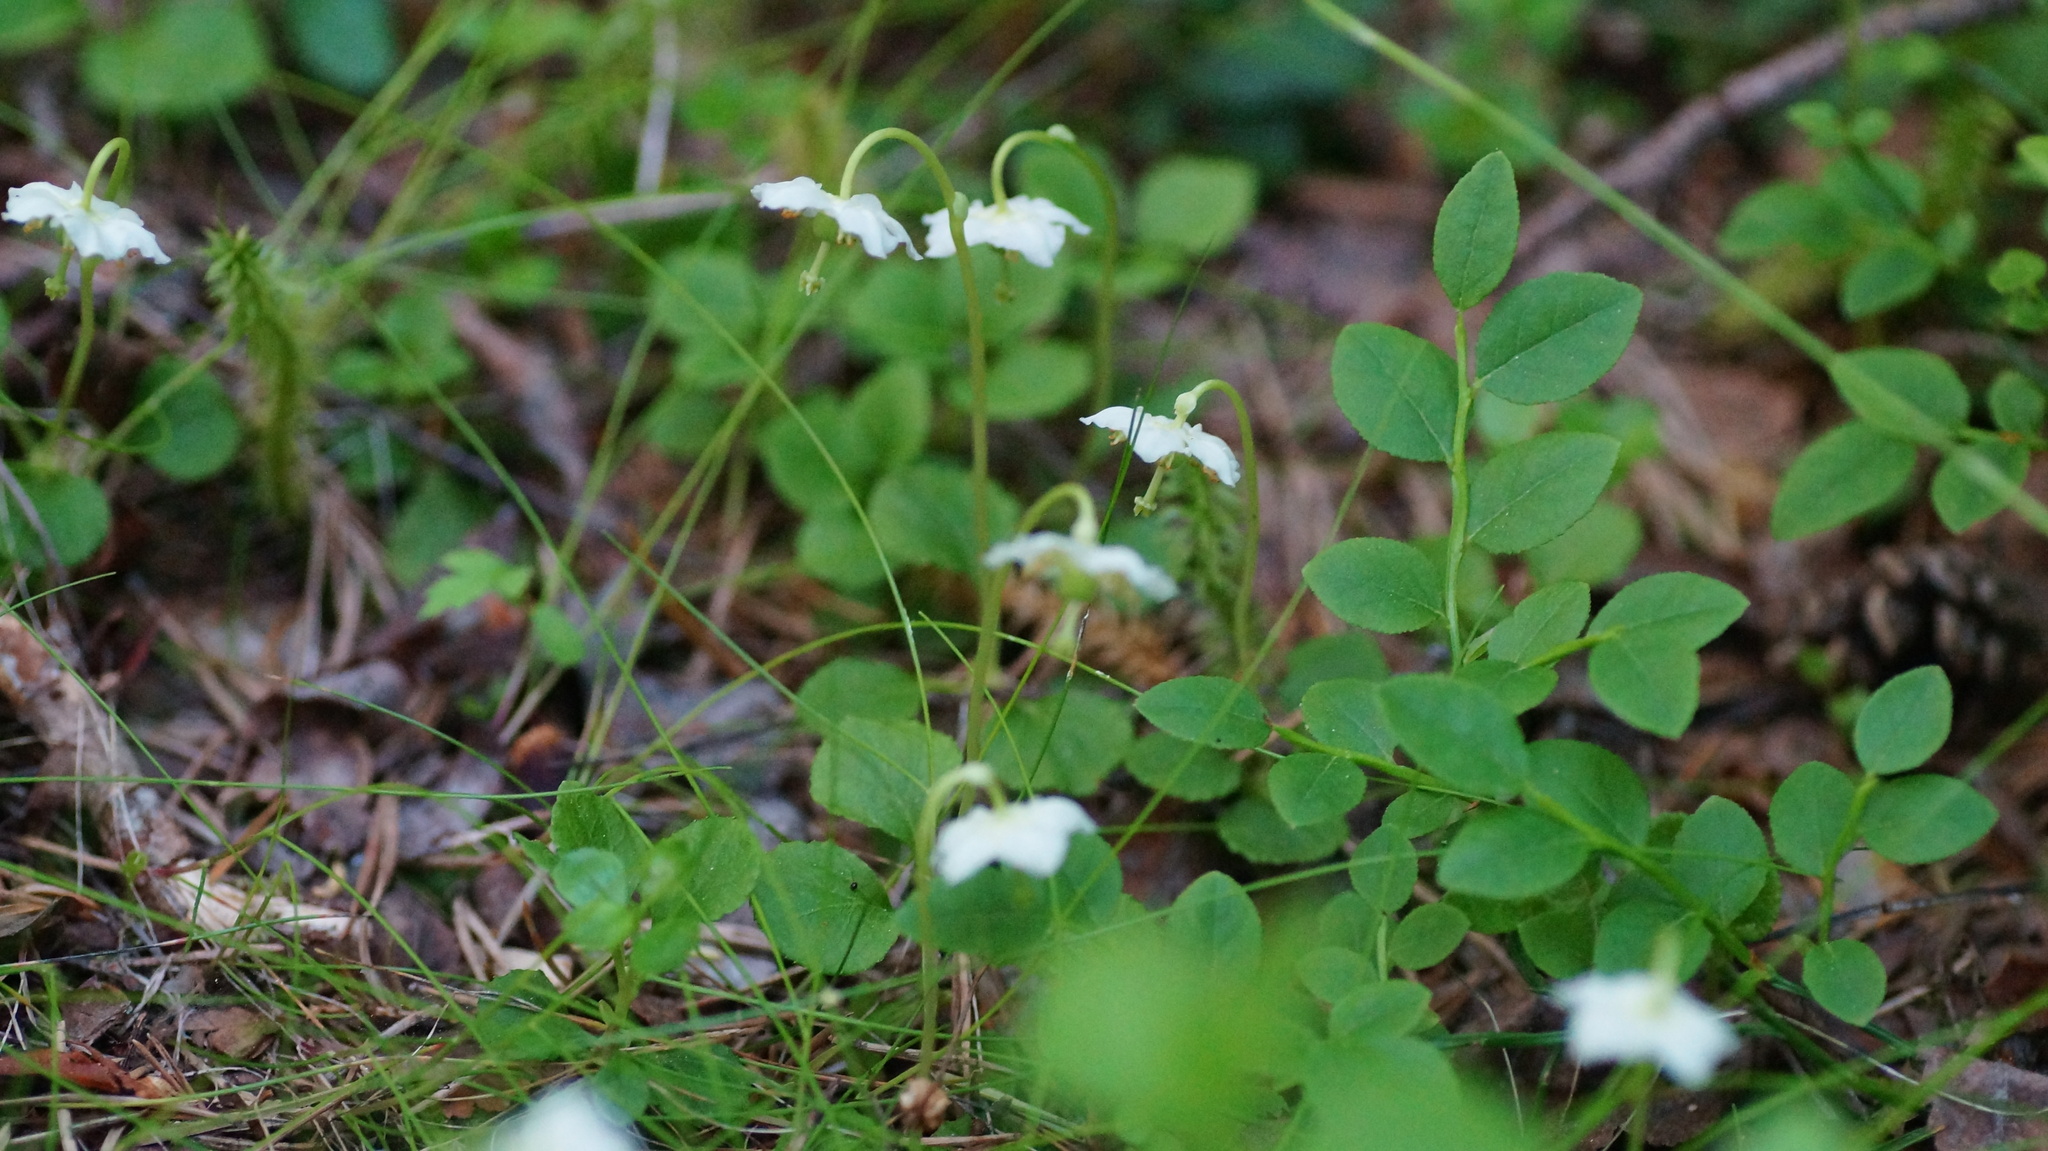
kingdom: Plantae
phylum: Tracheophyta
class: Magnoliopsida
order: Ericales
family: Ericaceae
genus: Moneses
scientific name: Moneses uniflora
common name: One-flowered wintergreen
